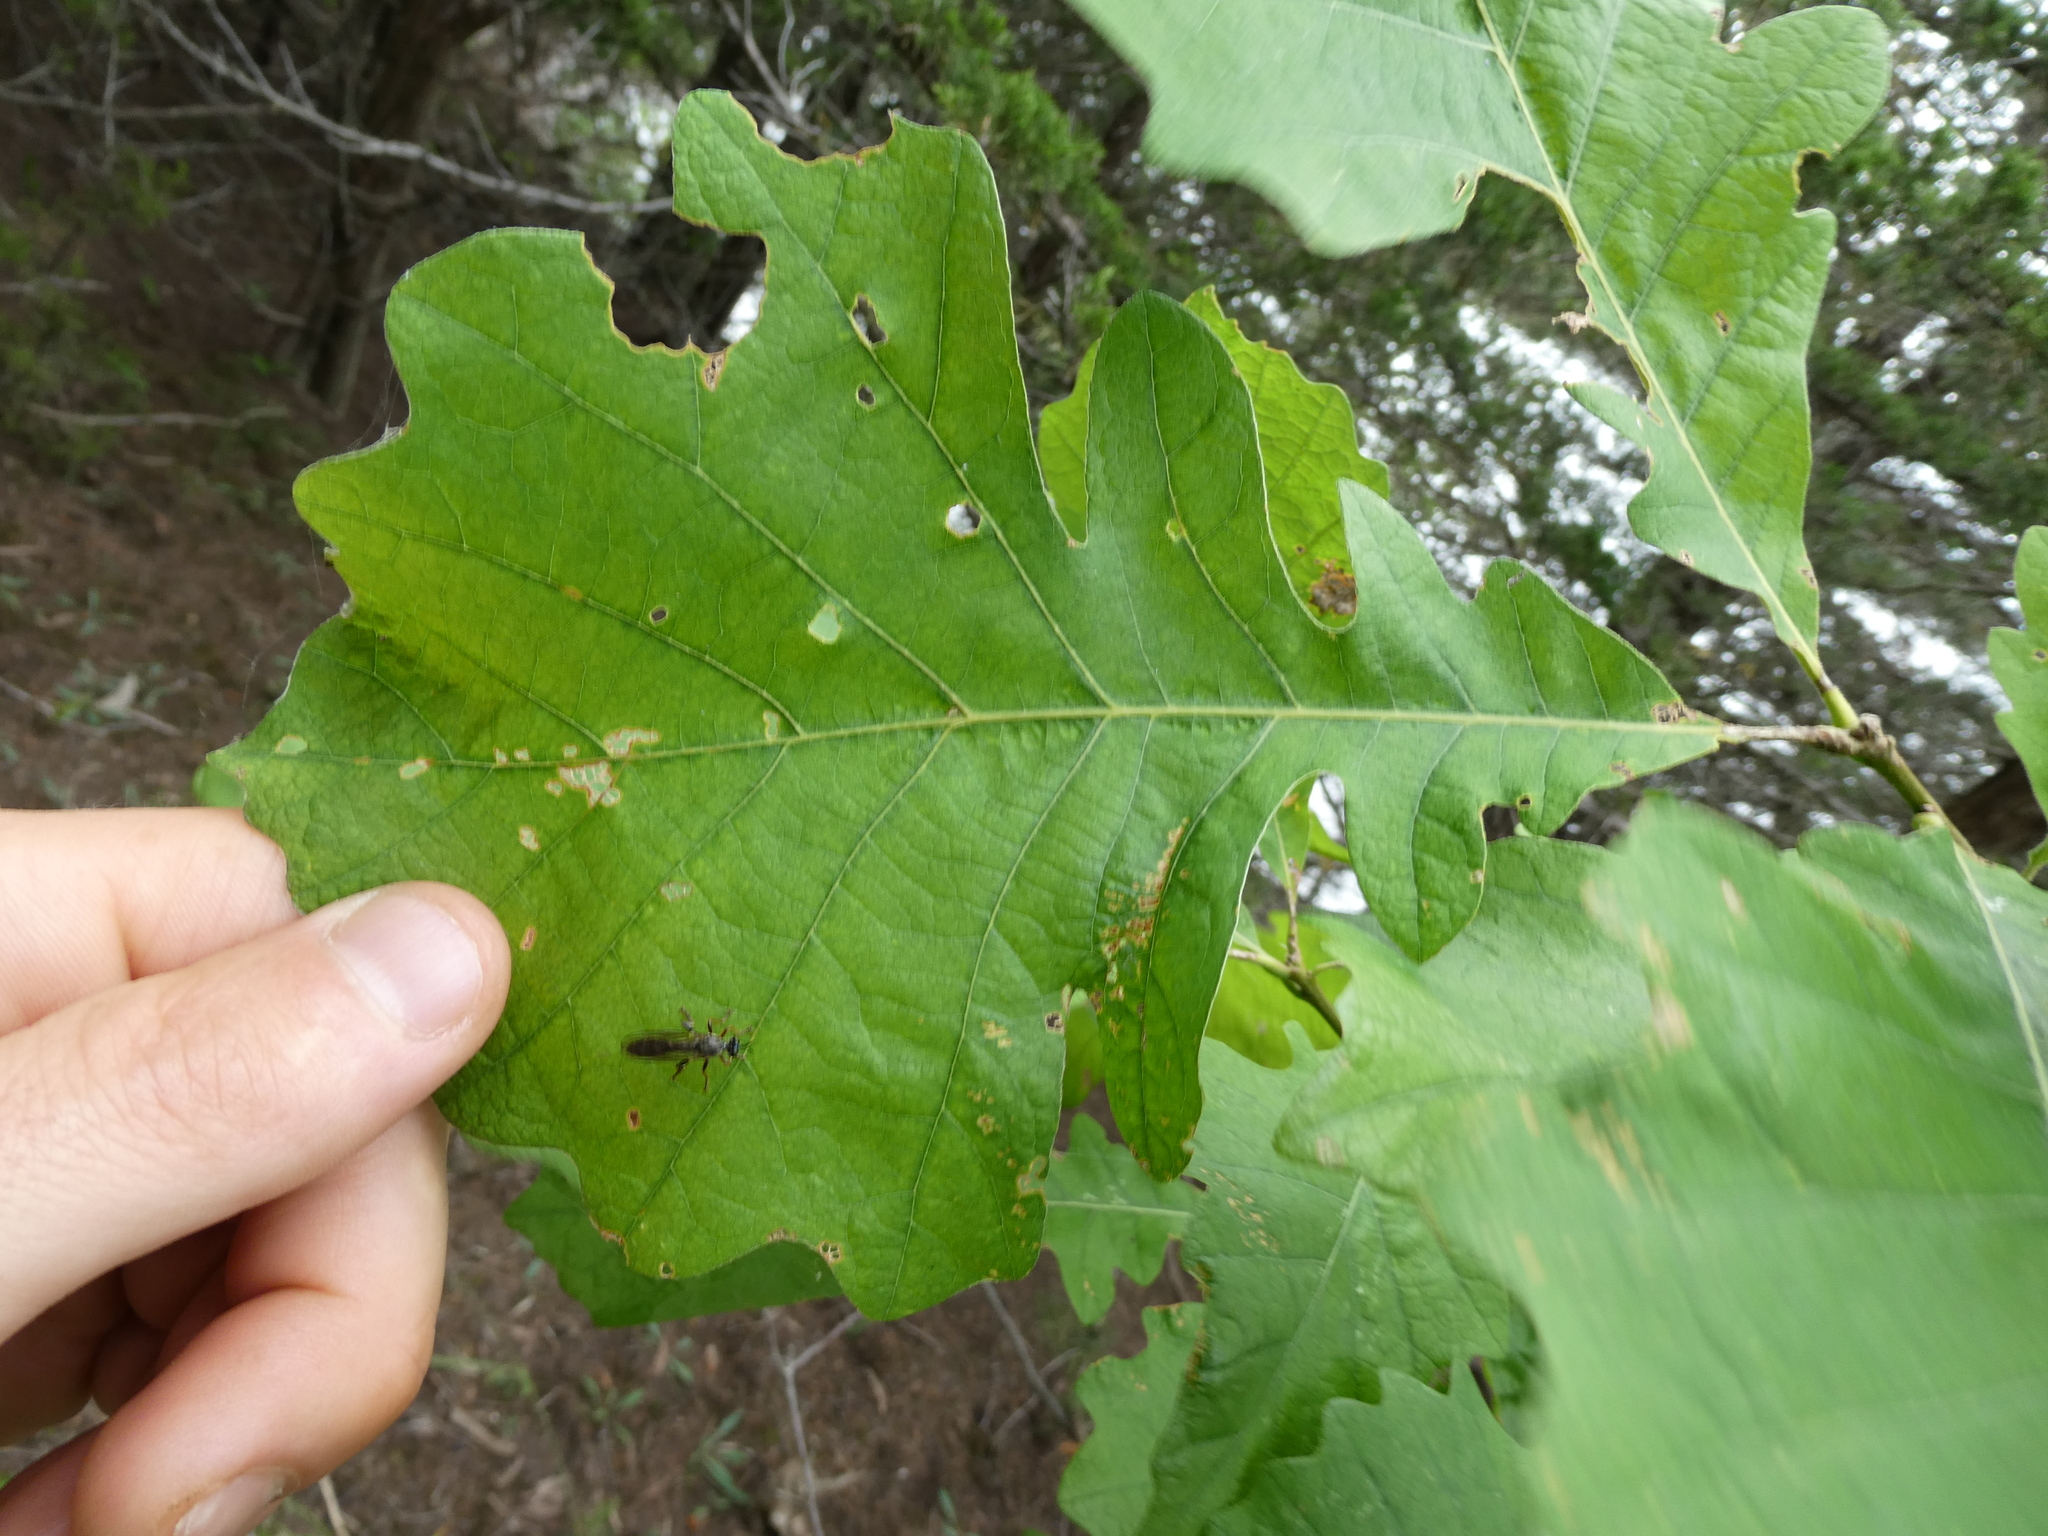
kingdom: Plantae
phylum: Tracheophyta
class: Magnoliopsida
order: Fagales
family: Fagaceae
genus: Quercus
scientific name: Quercus bicolor
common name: Swamp white oak
